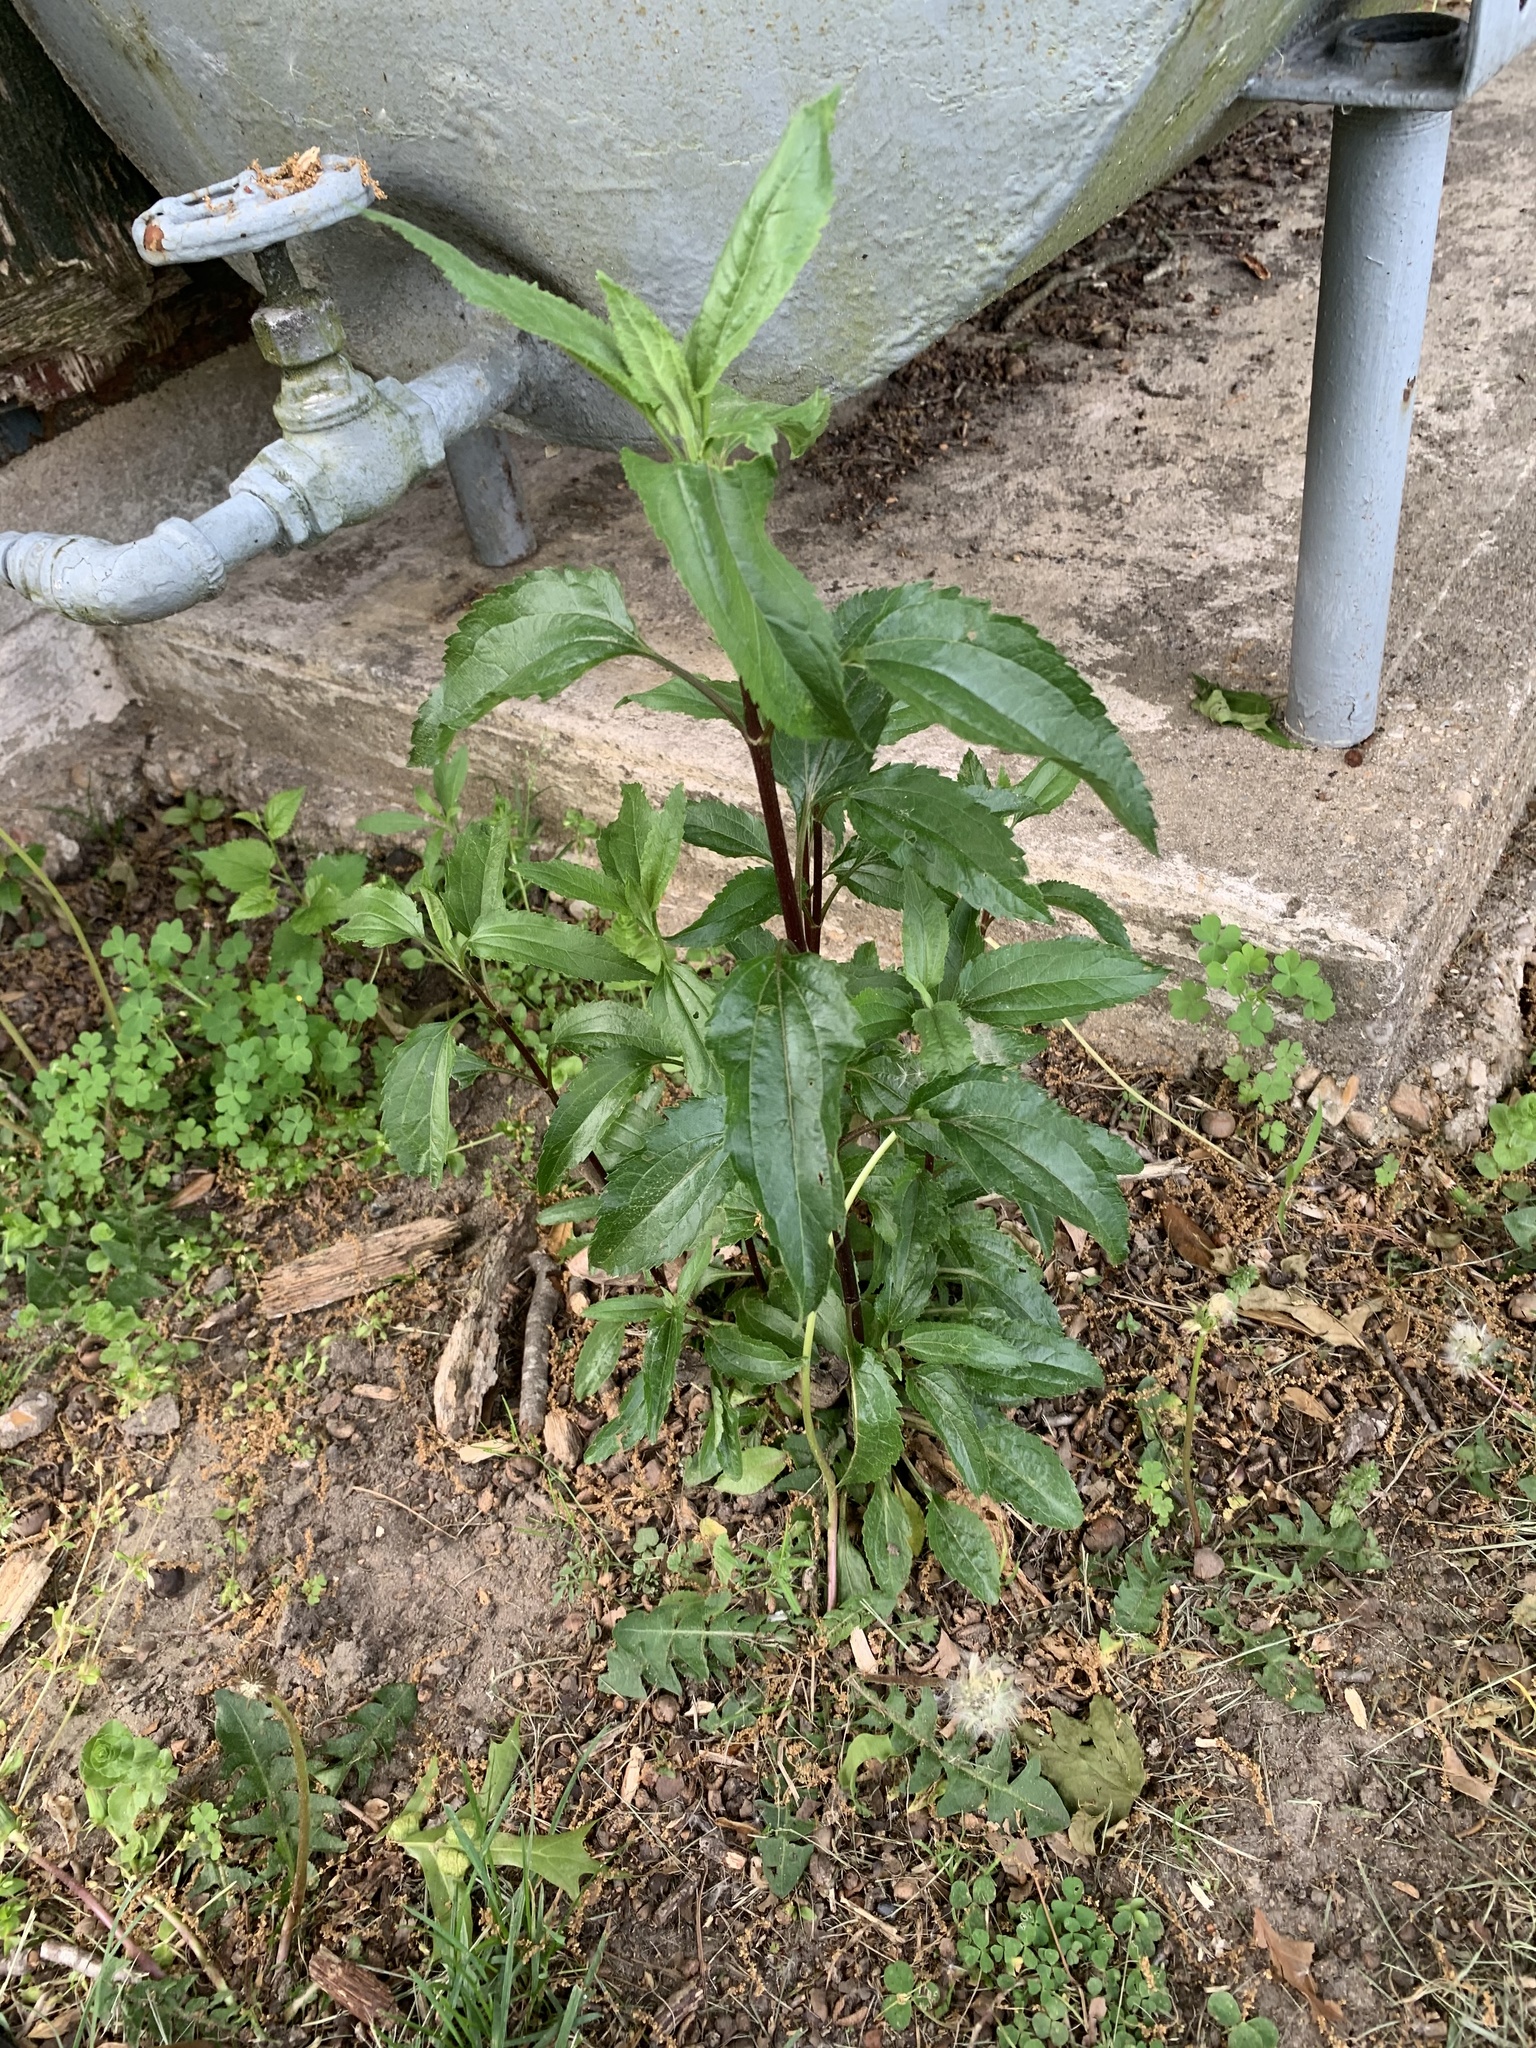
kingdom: Plantae
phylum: Tracheophyta
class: Magnoliopsida
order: Asterales
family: Asteraceae
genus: Eupatorium
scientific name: Eupatorium serotinum
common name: Late boneset
